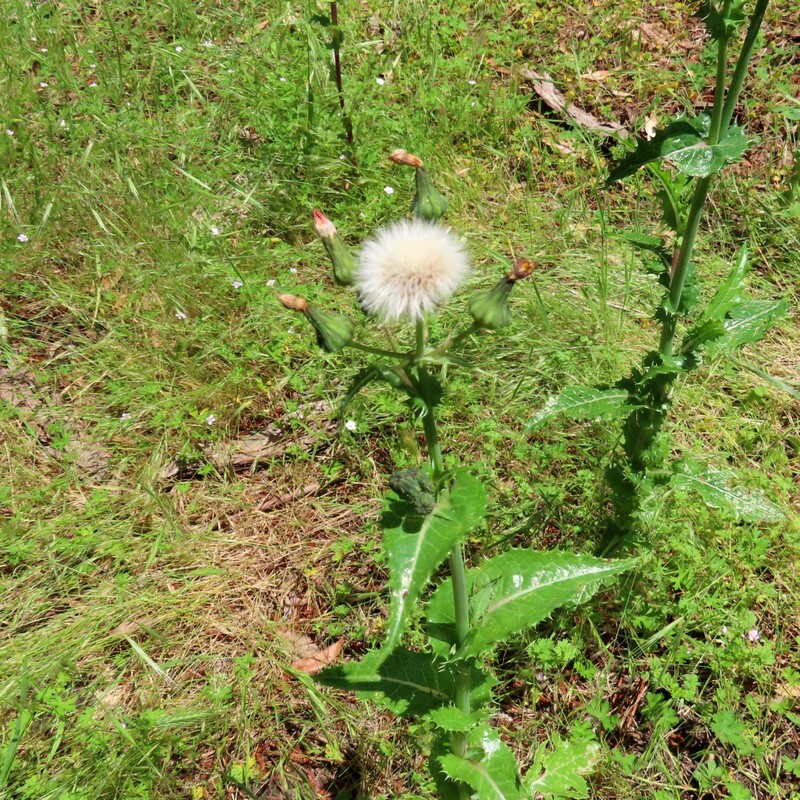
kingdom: Plantae
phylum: Tracheophyta
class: Magnoliopsida
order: Asterales
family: Asteraceae
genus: Sonchus
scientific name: Sonchus asper
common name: Prickly sow-thistle
